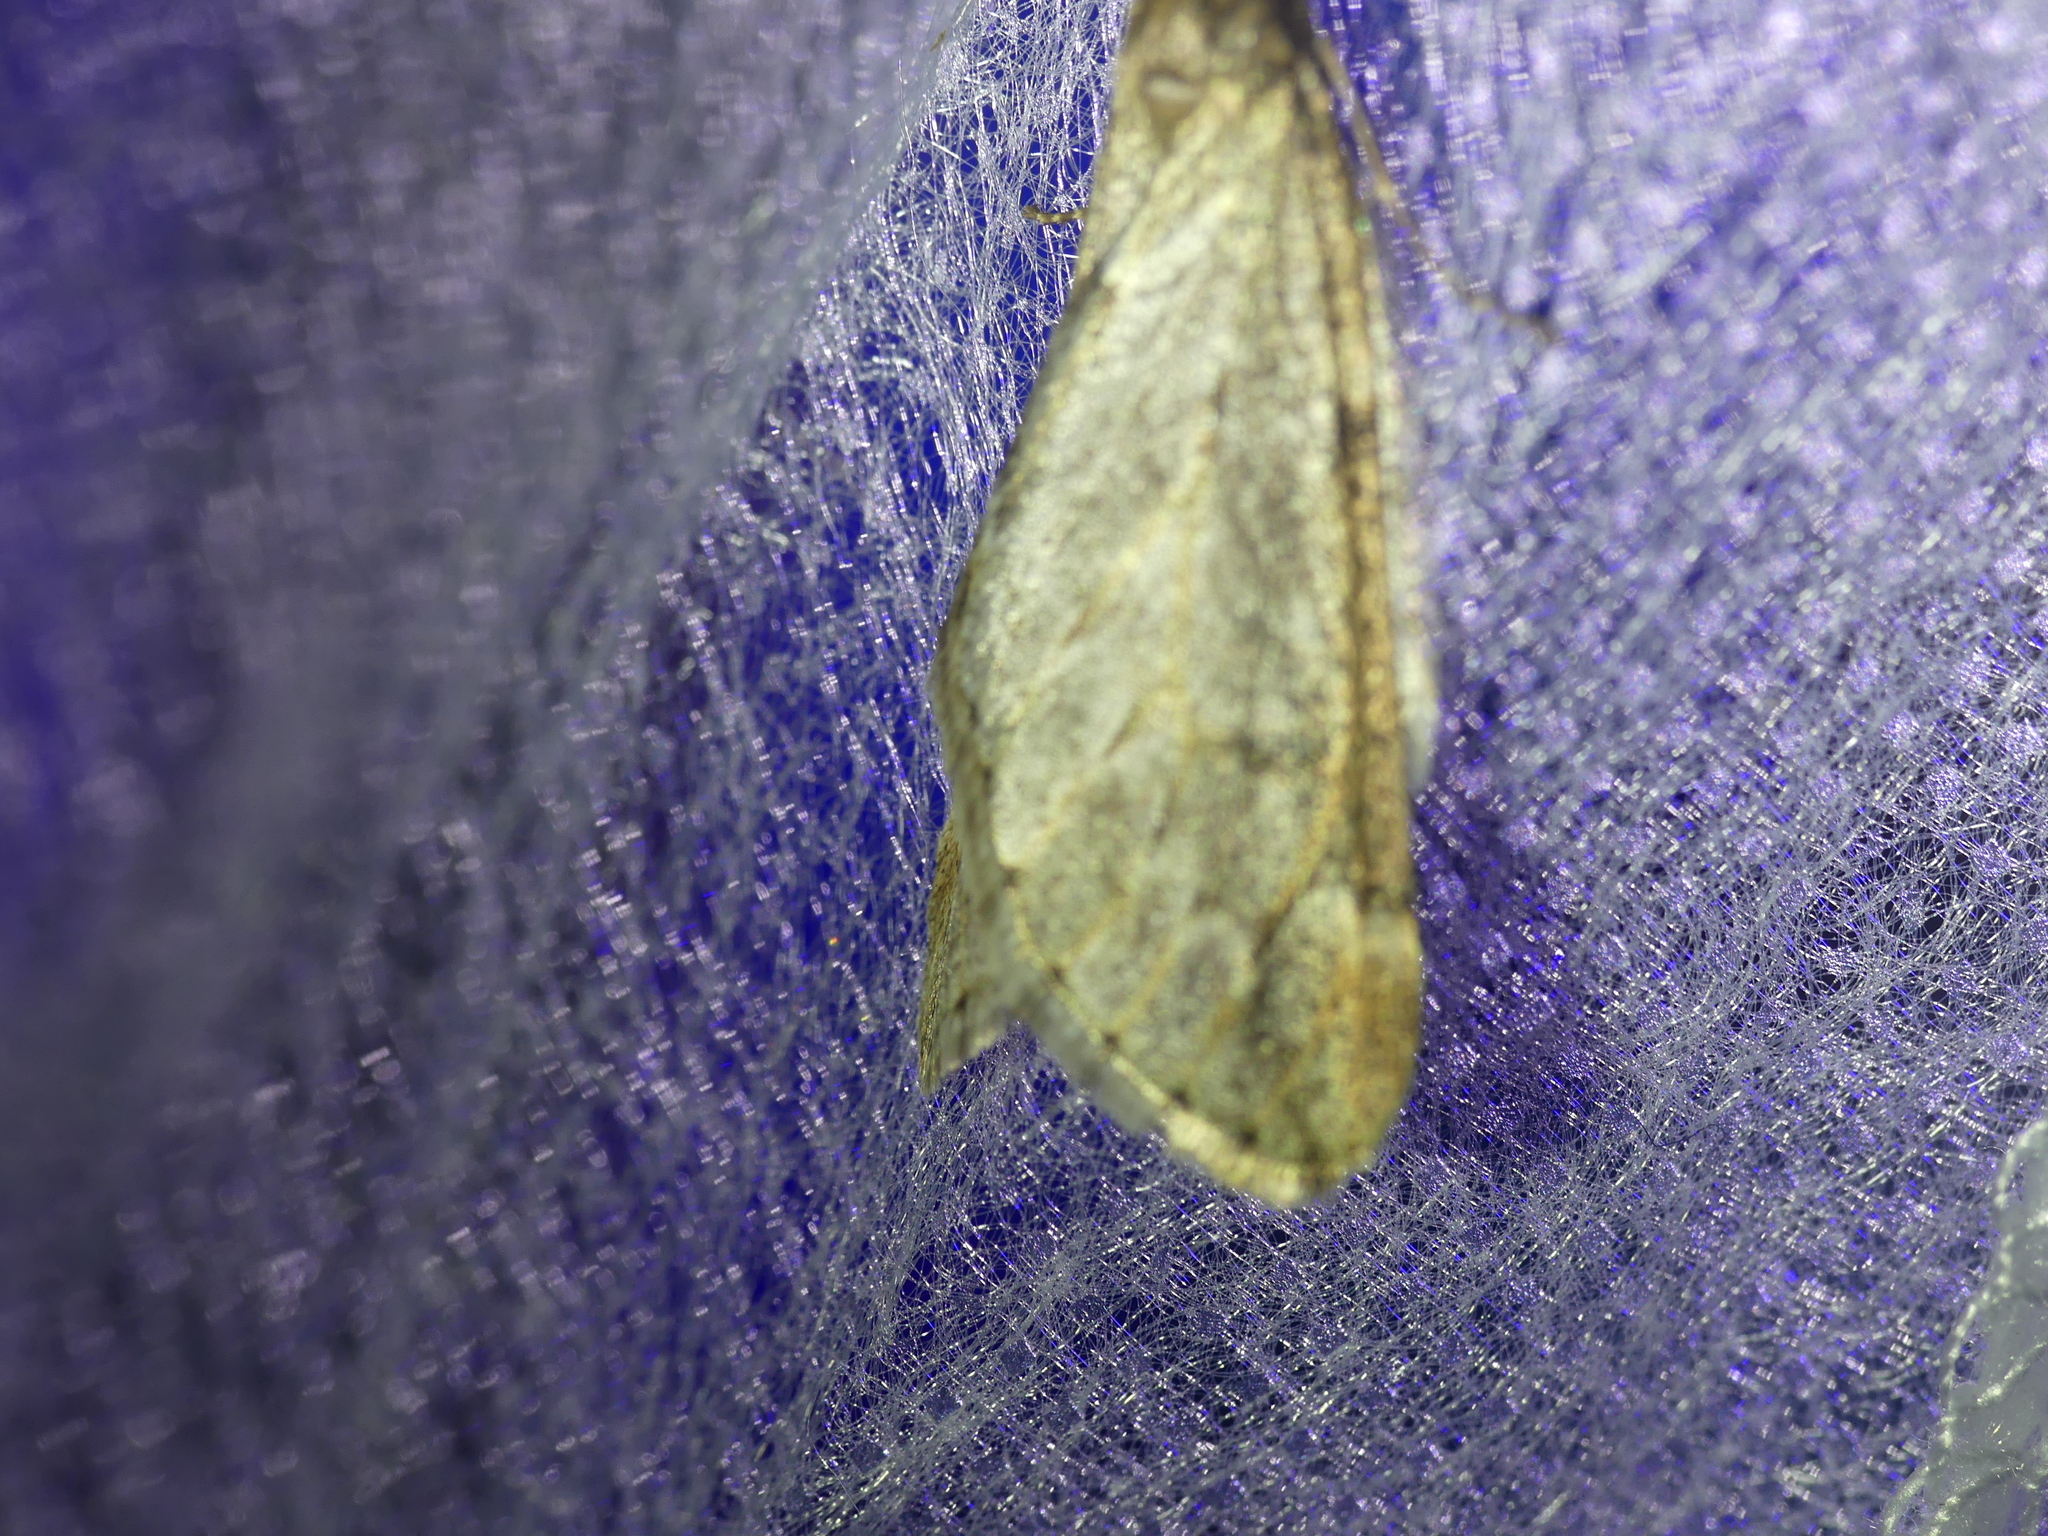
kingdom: Animalia
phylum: Arthropoda
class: Insecta
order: Lepidoptera
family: Geometridae
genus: Alsophila
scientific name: Alsophila aescularia
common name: March moth
